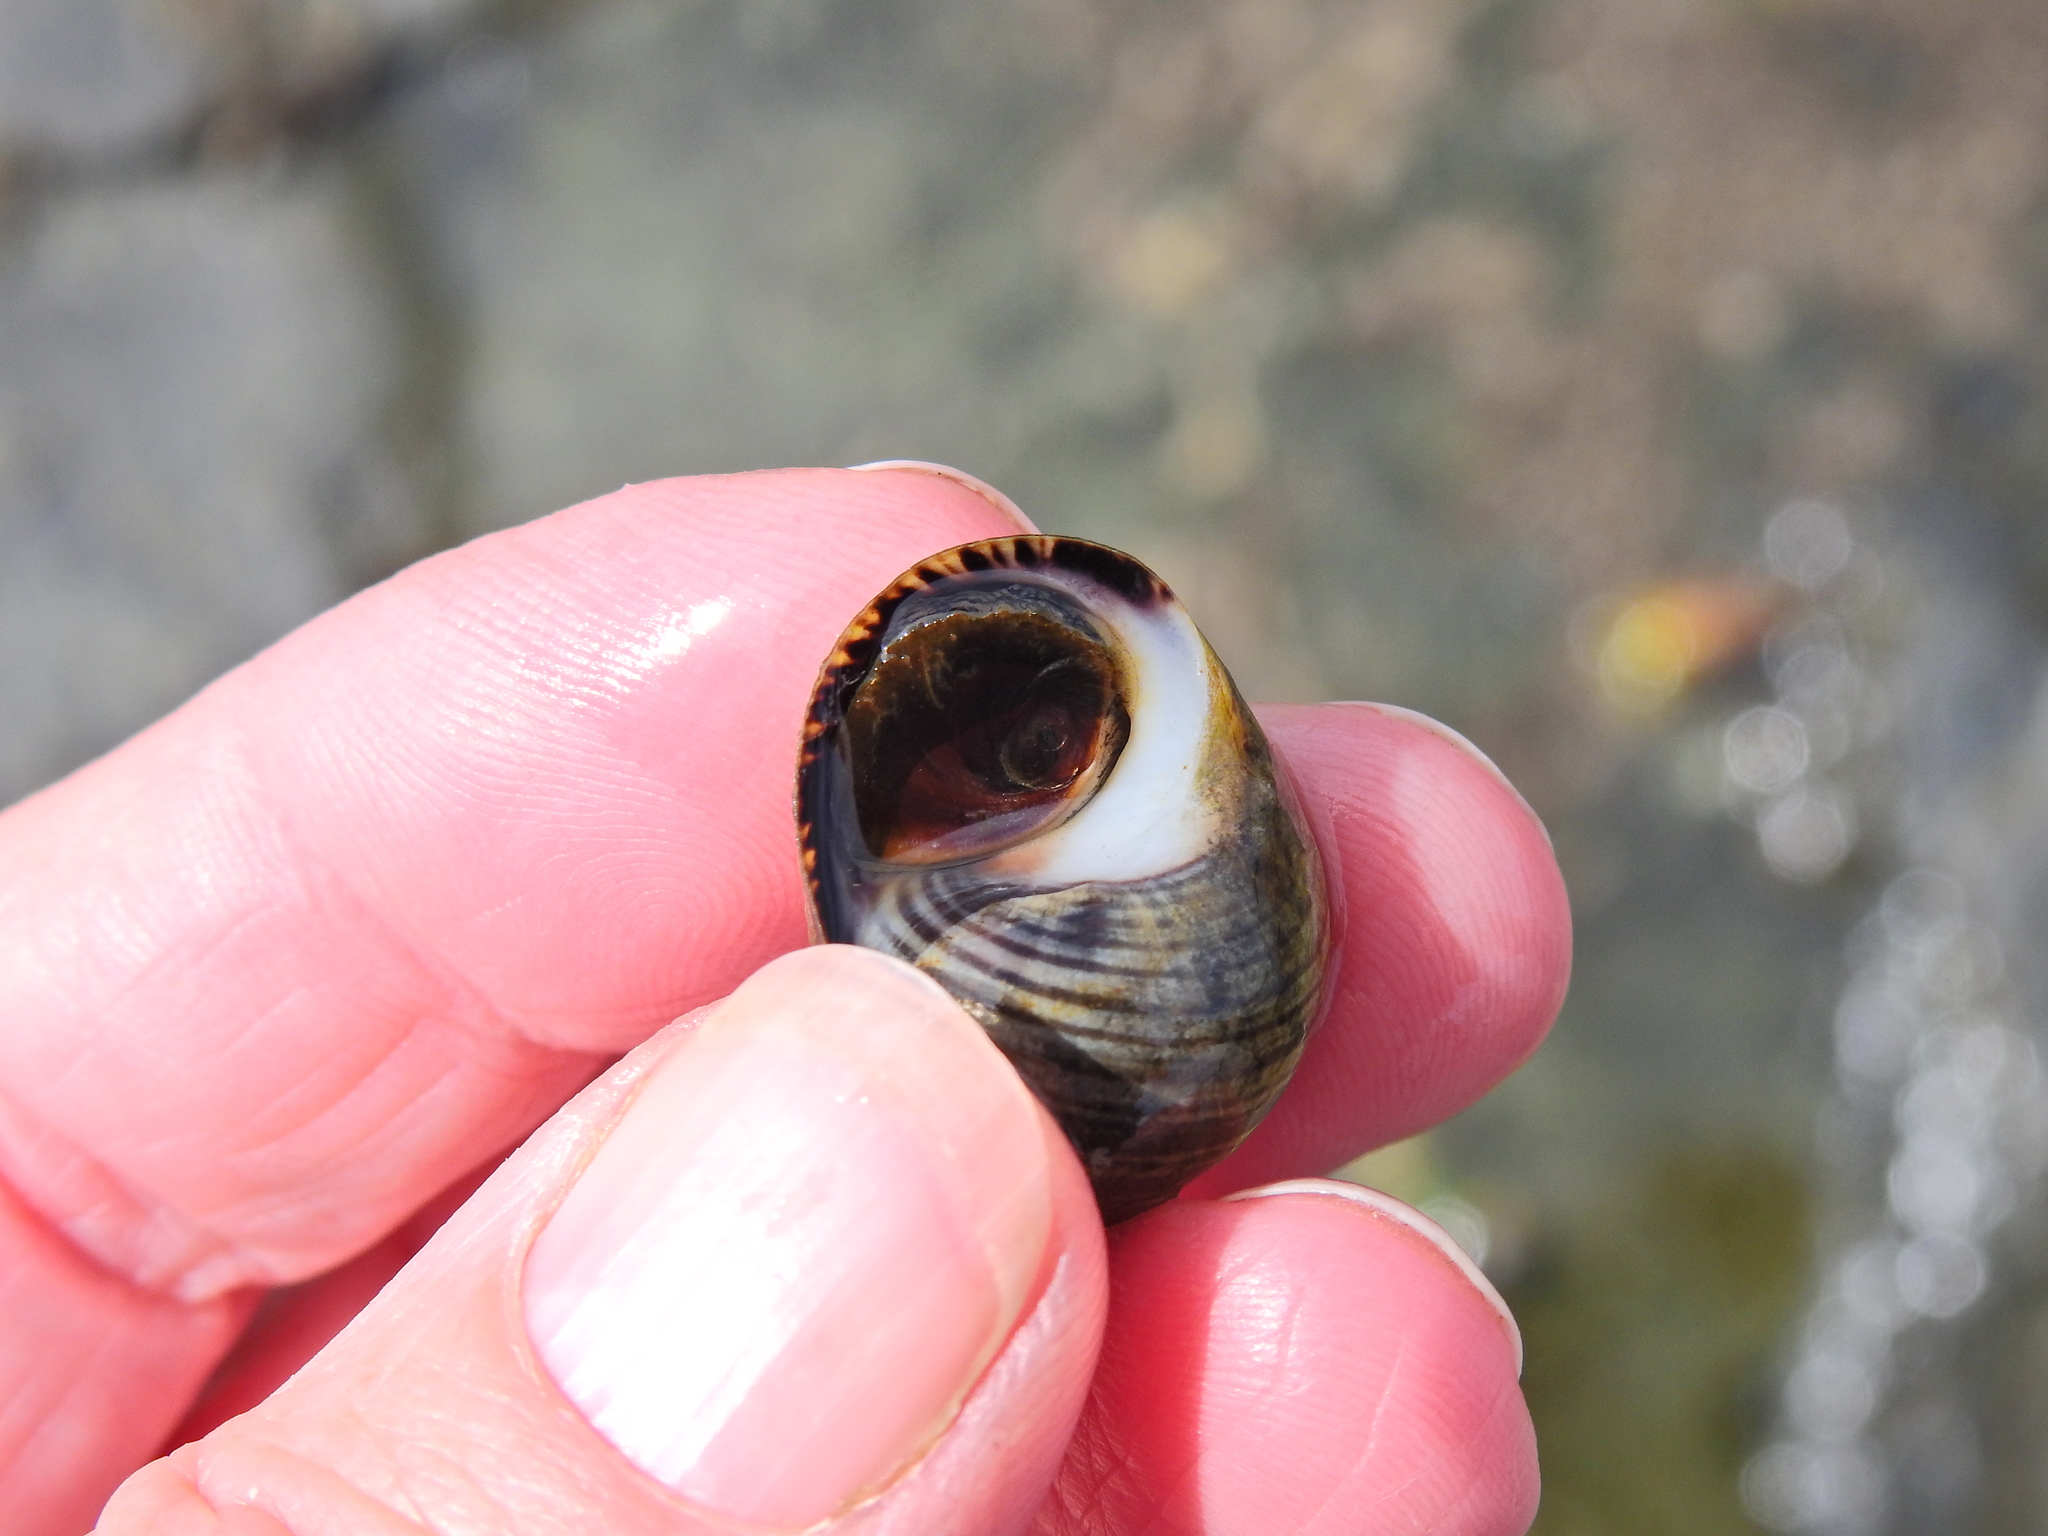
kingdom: Animalia
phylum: Mollusca
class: Gastropoda
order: Littorinimorpha
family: Littorinidae
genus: Littorina
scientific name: Littorina littorea
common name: Common periwinkle
